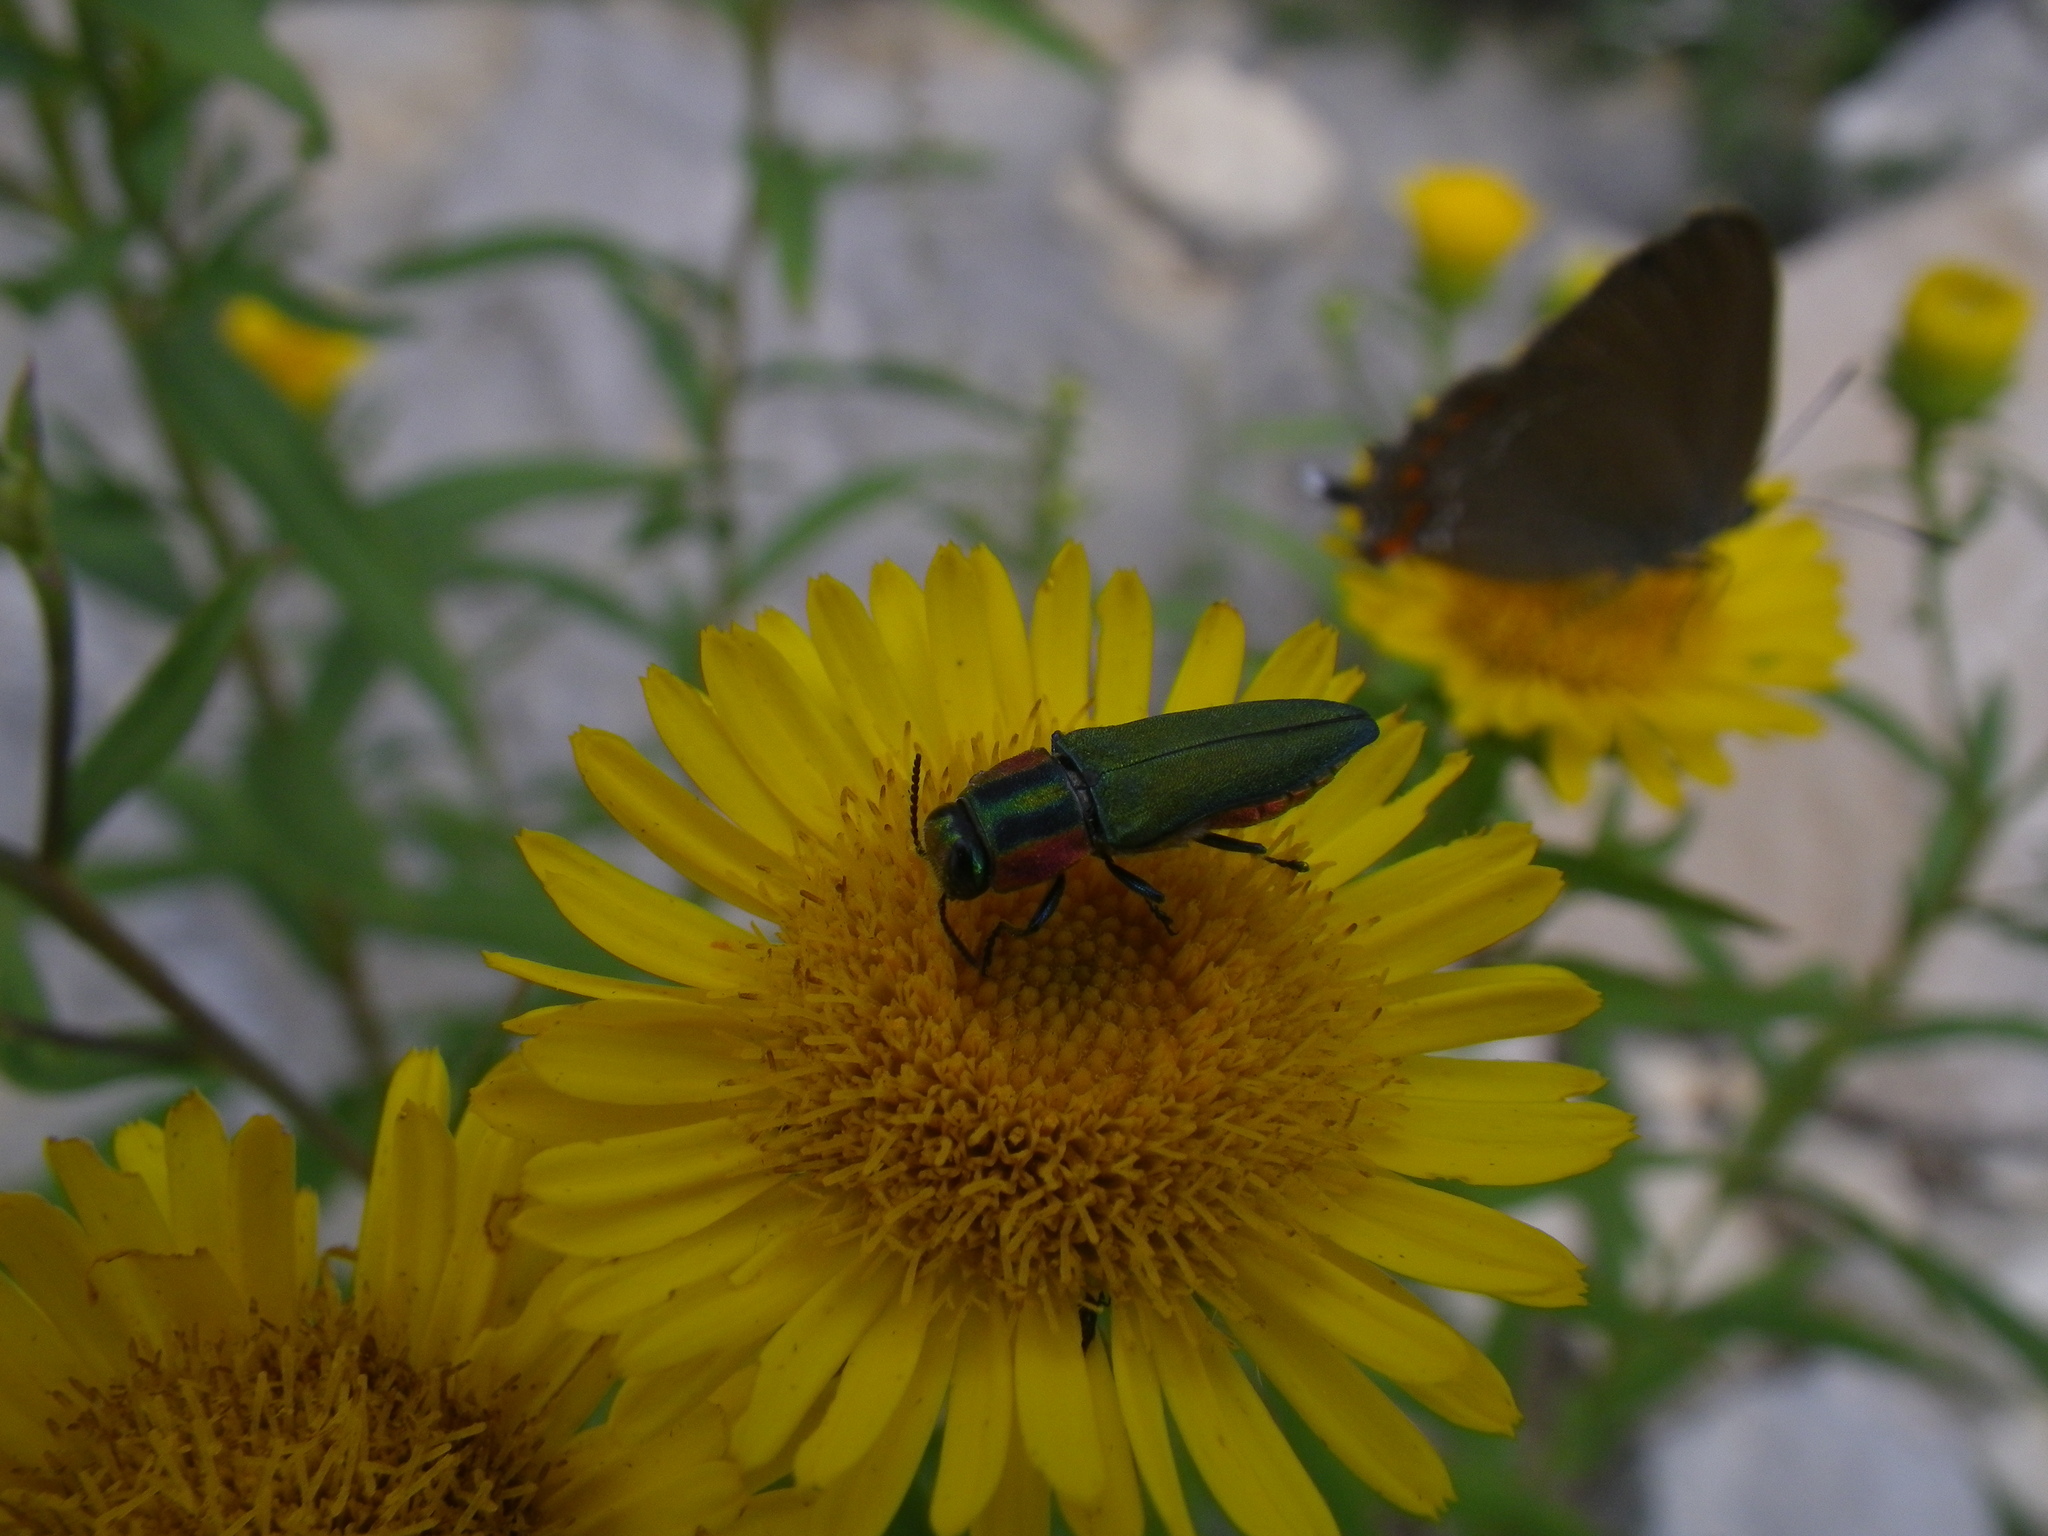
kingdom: Animalia
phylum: Arthropoda
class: Insecta
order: Coleoptera
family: Buprestidae
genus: Anthaxia
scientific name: Anthaxia hungarica
